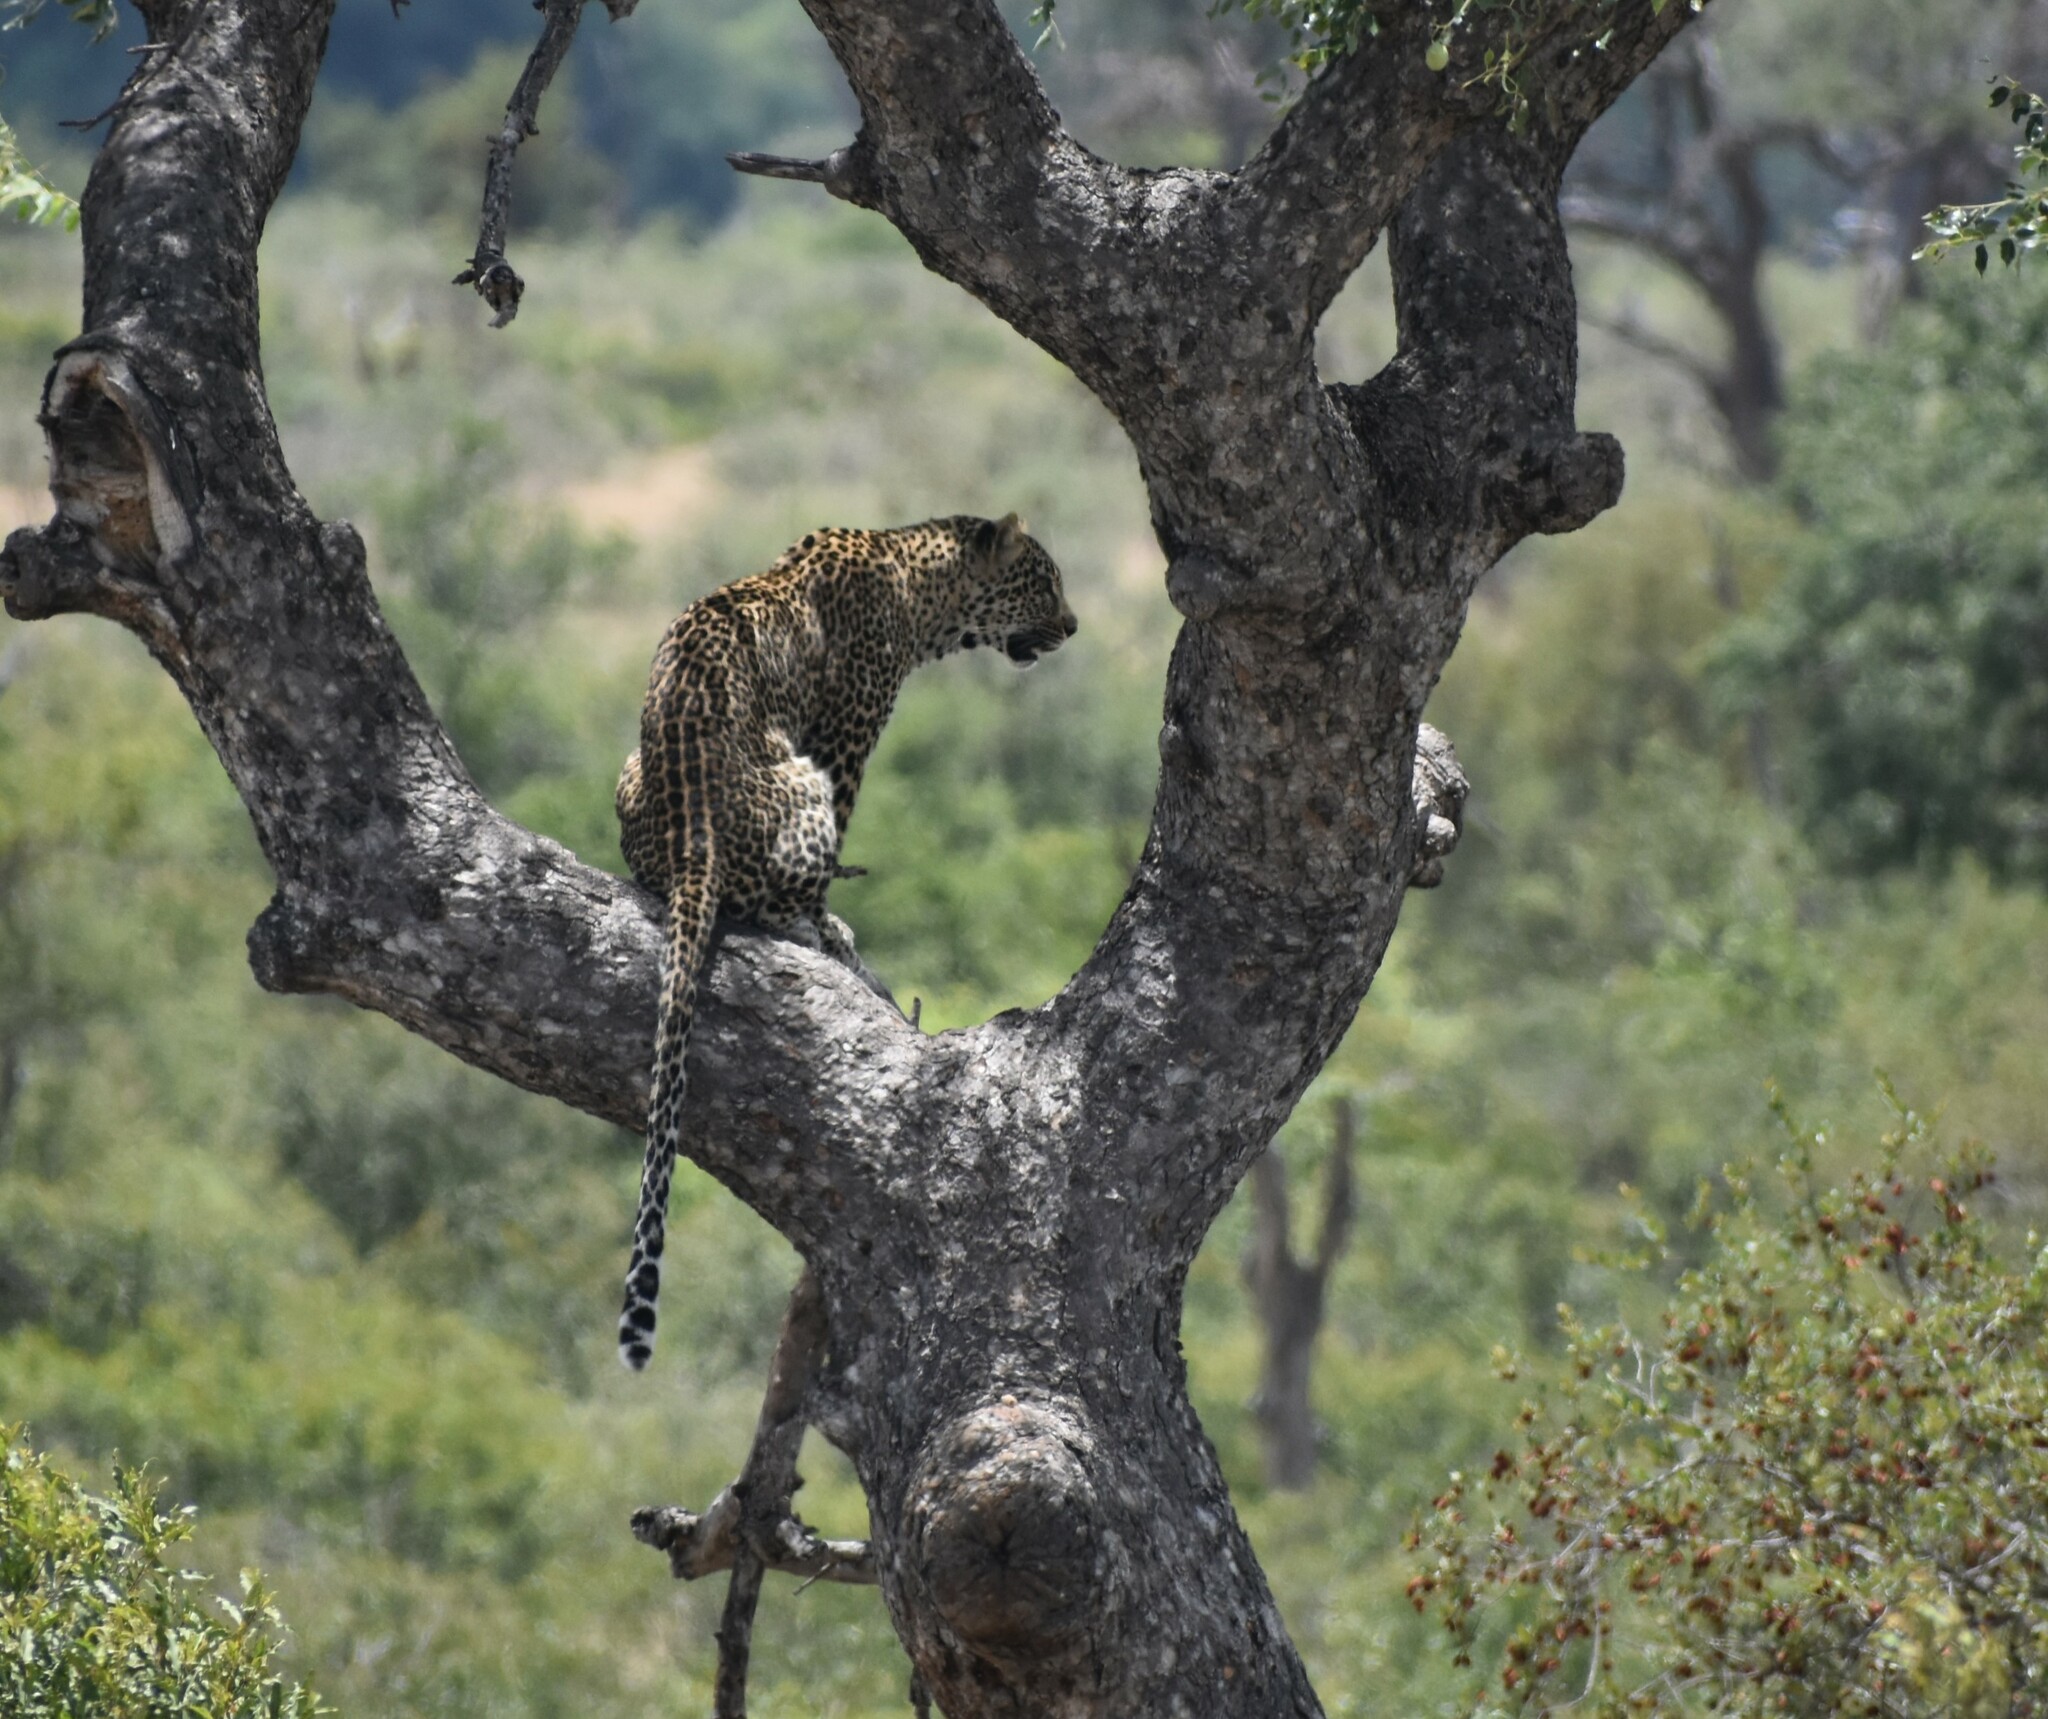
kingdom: Animalia
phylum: Chordata
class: Mammalia
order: Carnivora
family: Felidae
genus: Panthera
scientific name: Panthera pardus
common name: Leopard
